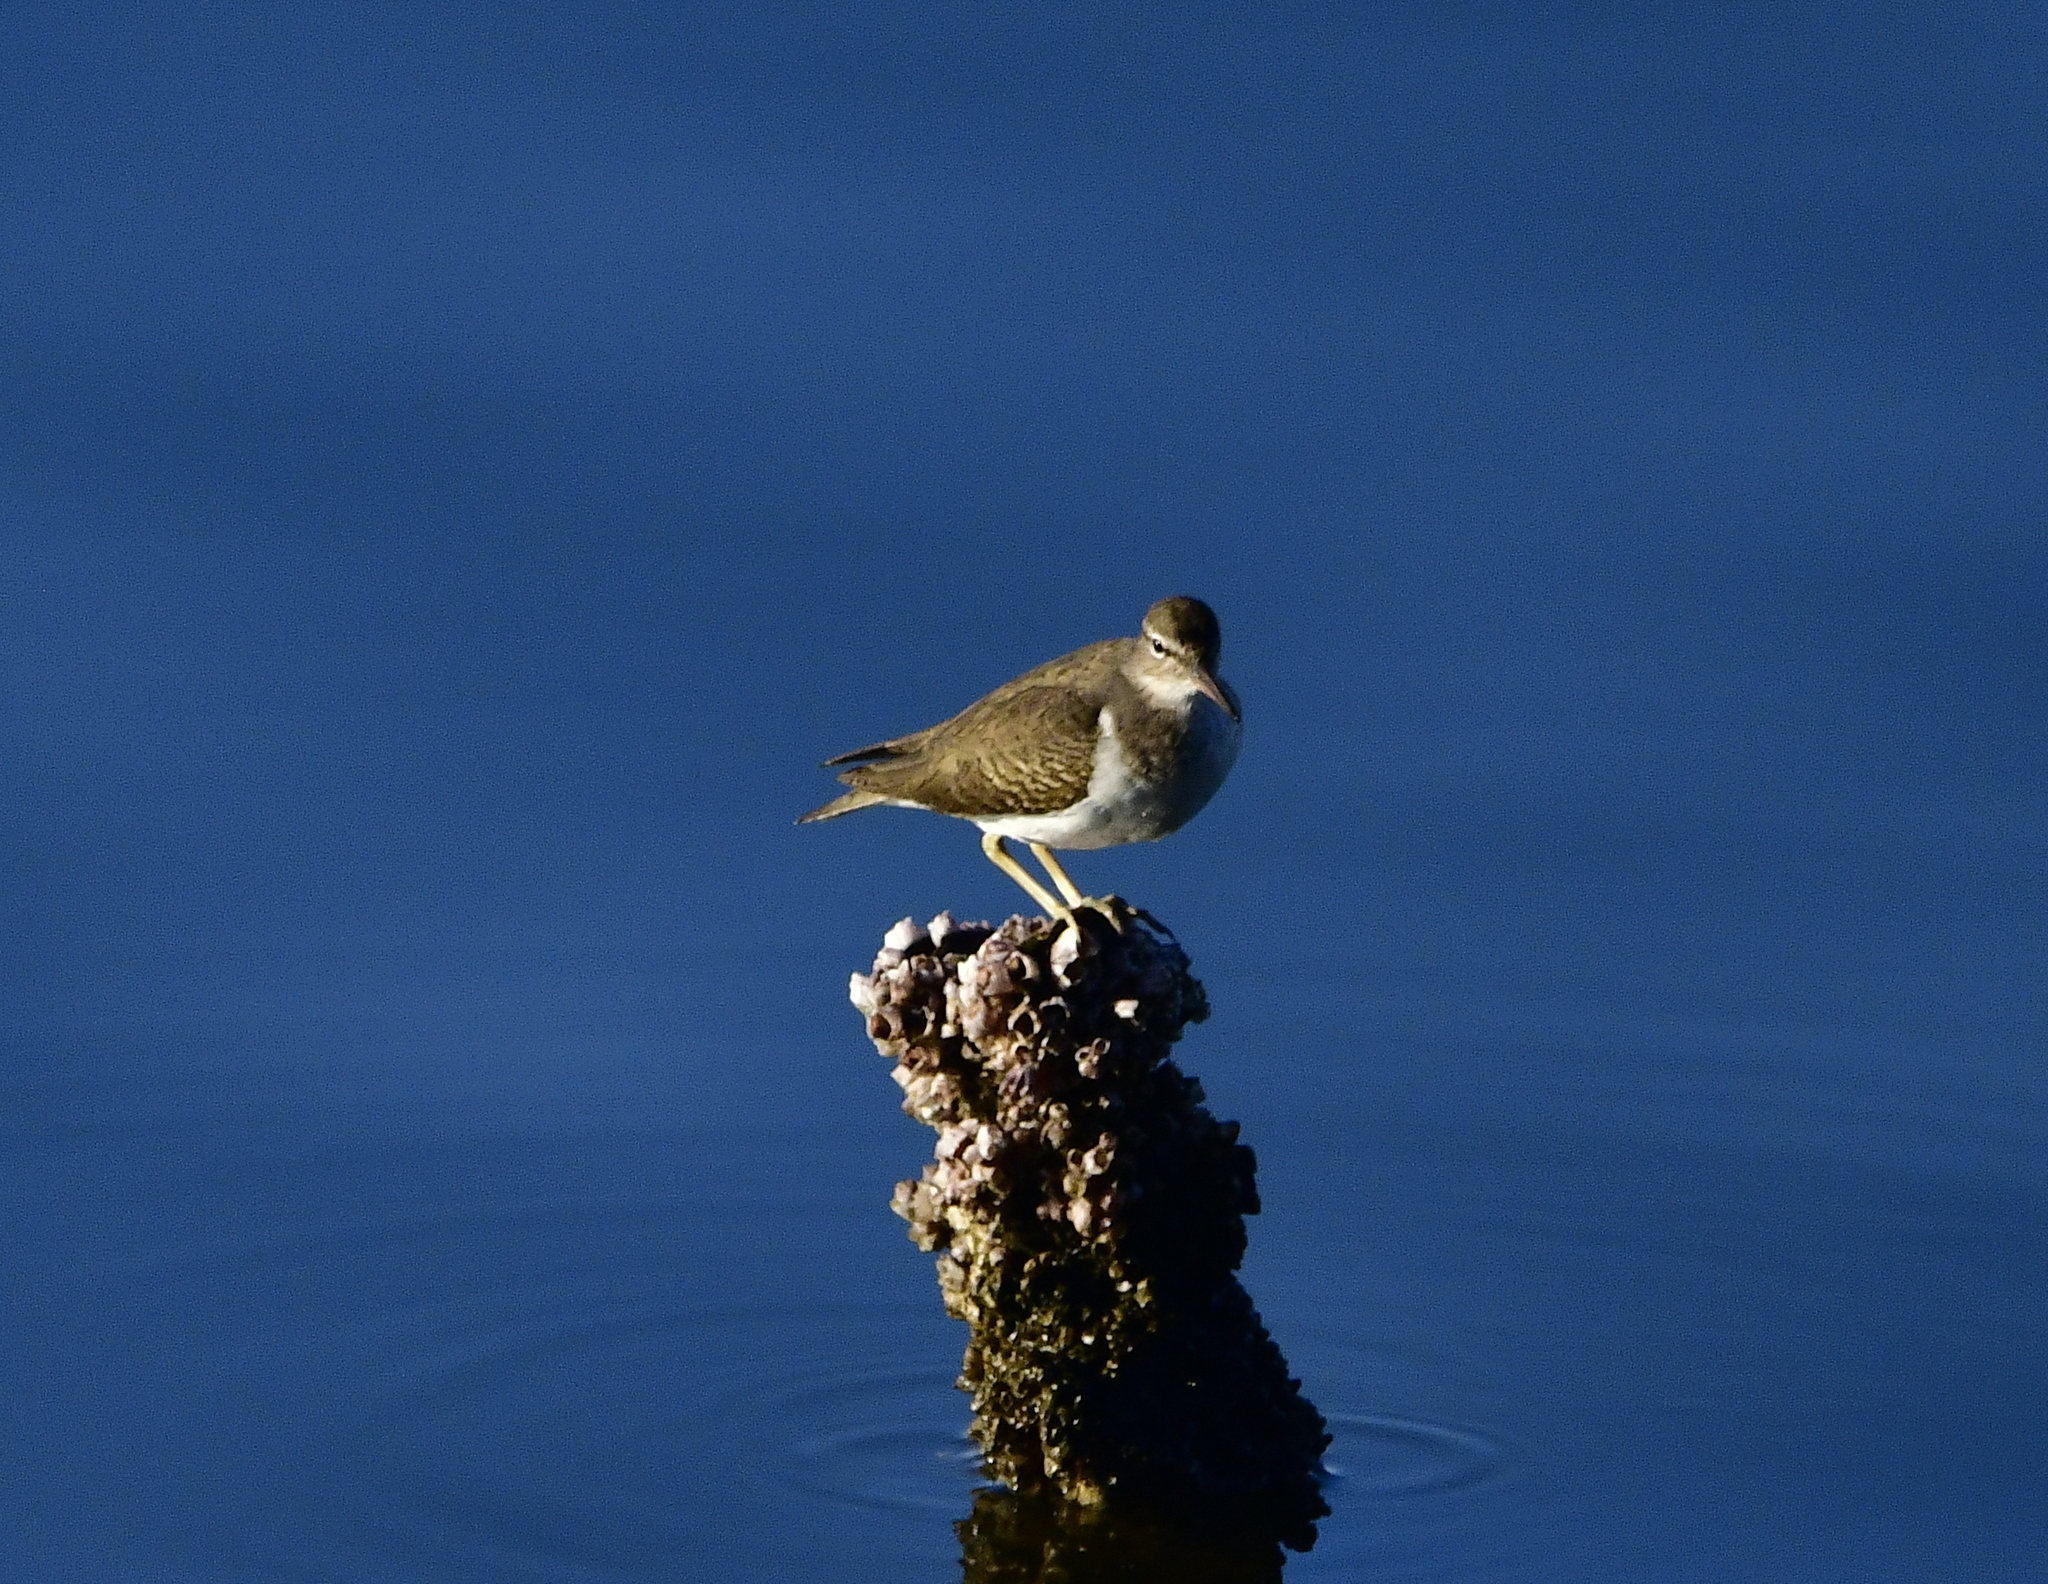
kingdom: Animalia
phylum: Chordata
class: Aves
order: Charadriiformes
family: Scolopacidae
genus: Actitis
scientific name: Actitis macularius
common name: Spotted sandpiper
